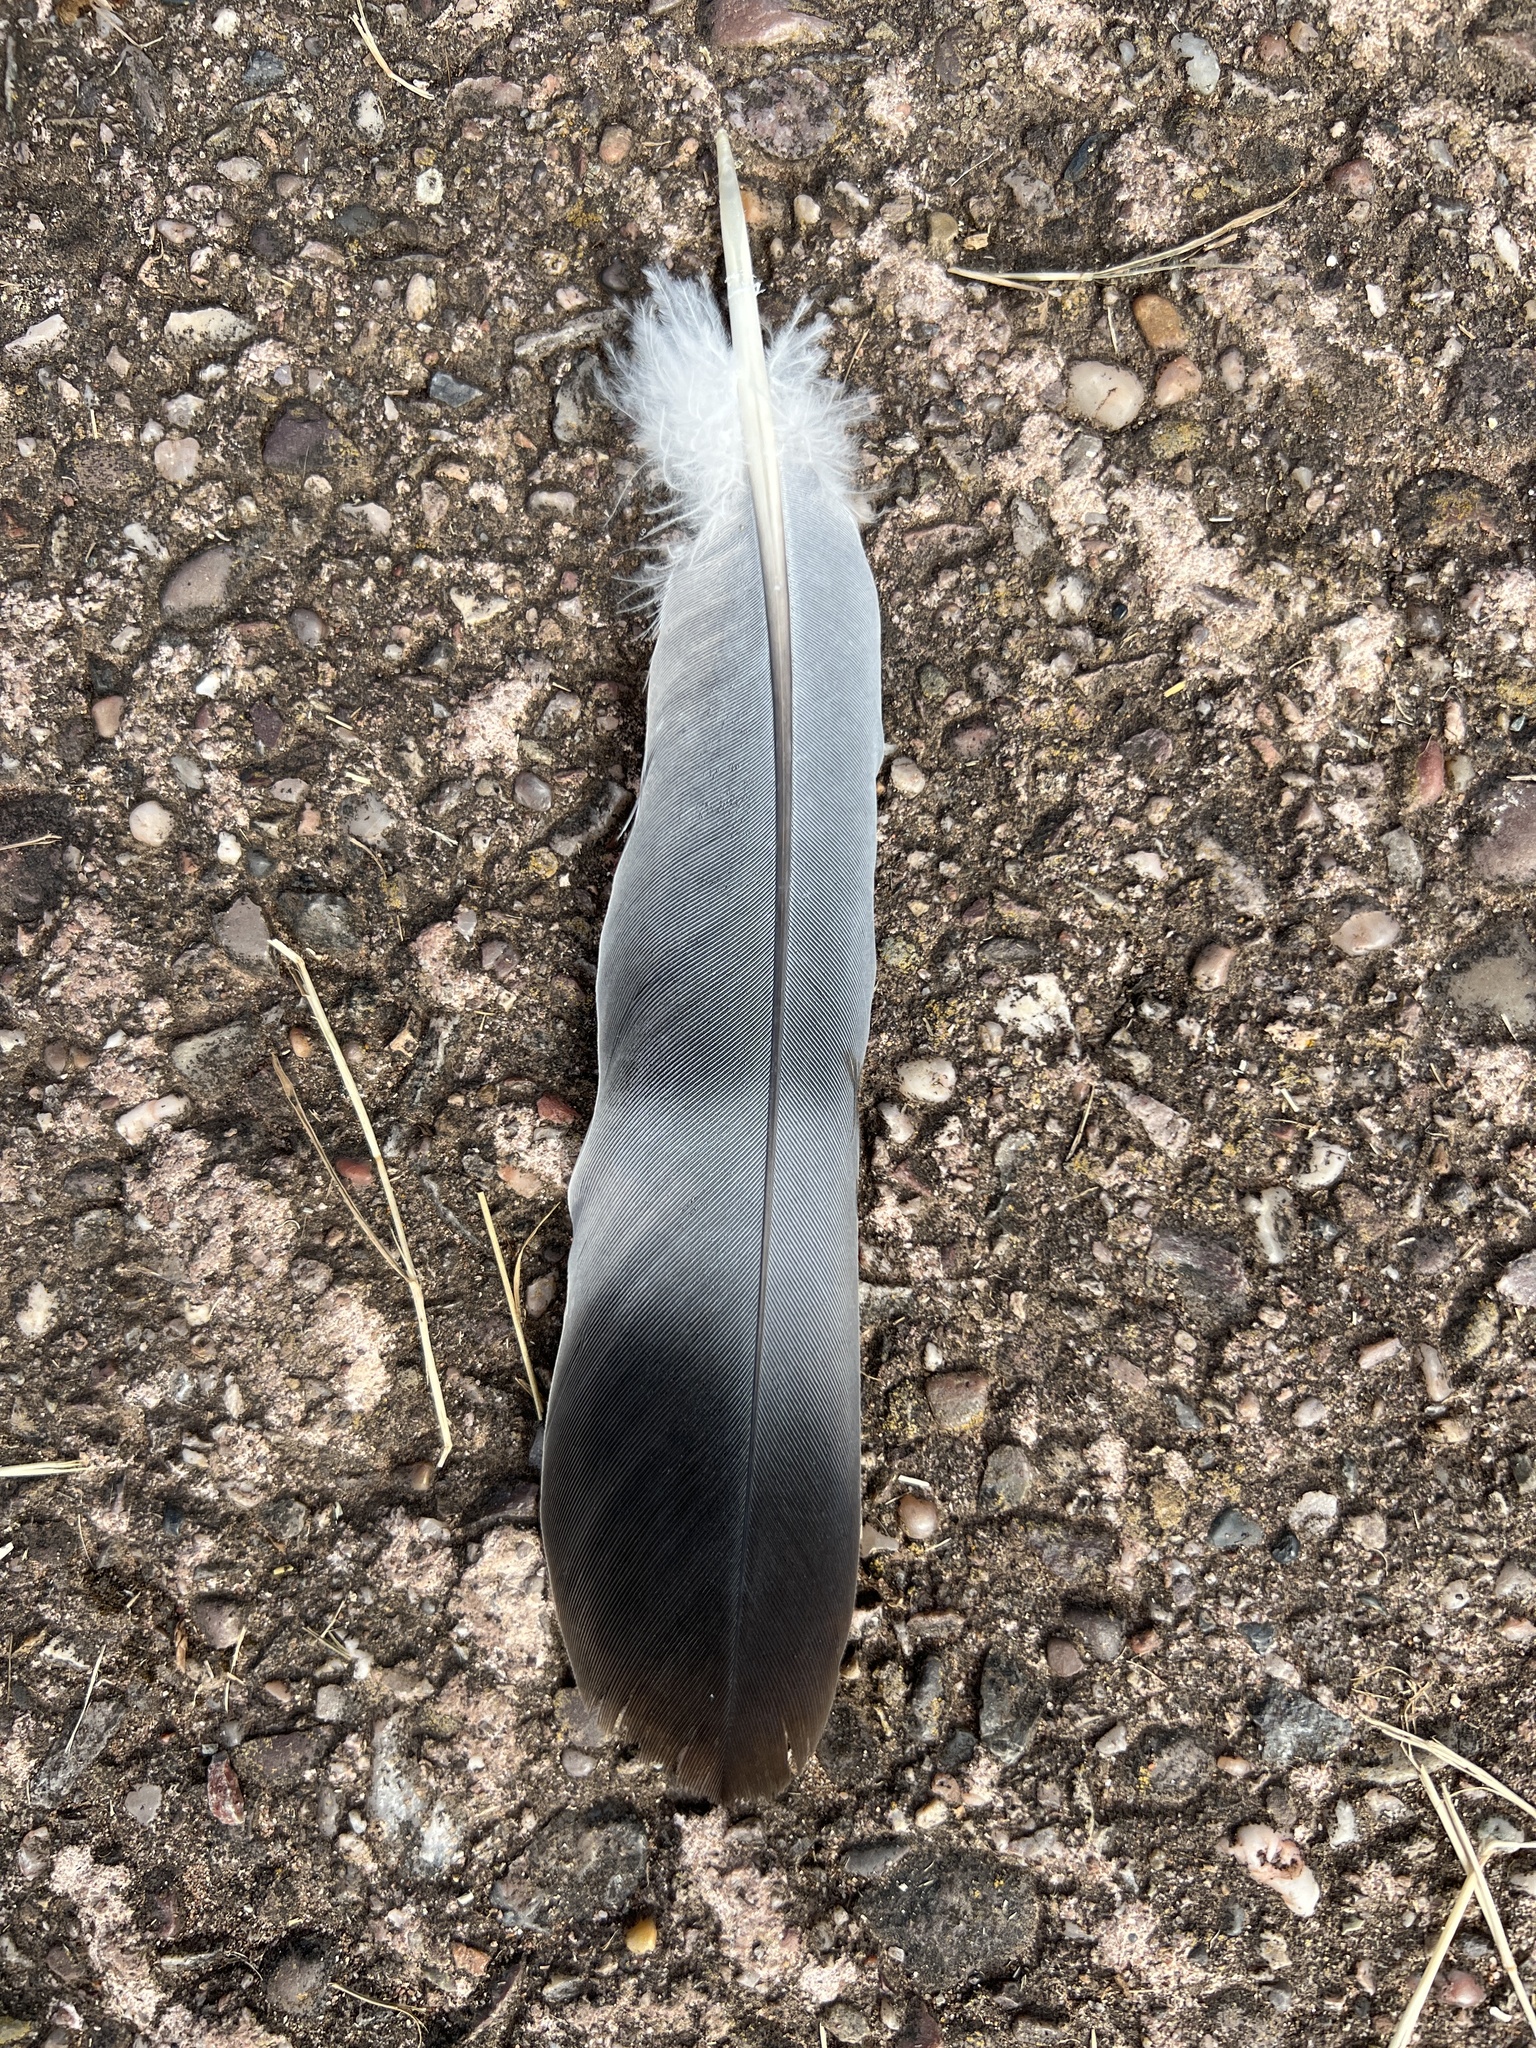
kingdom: Animalia
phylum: Chordata
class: Aves
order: Columbiformes
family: Columbidae
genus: Columba
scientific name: Columba palumbus
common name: Common wood pigeon
